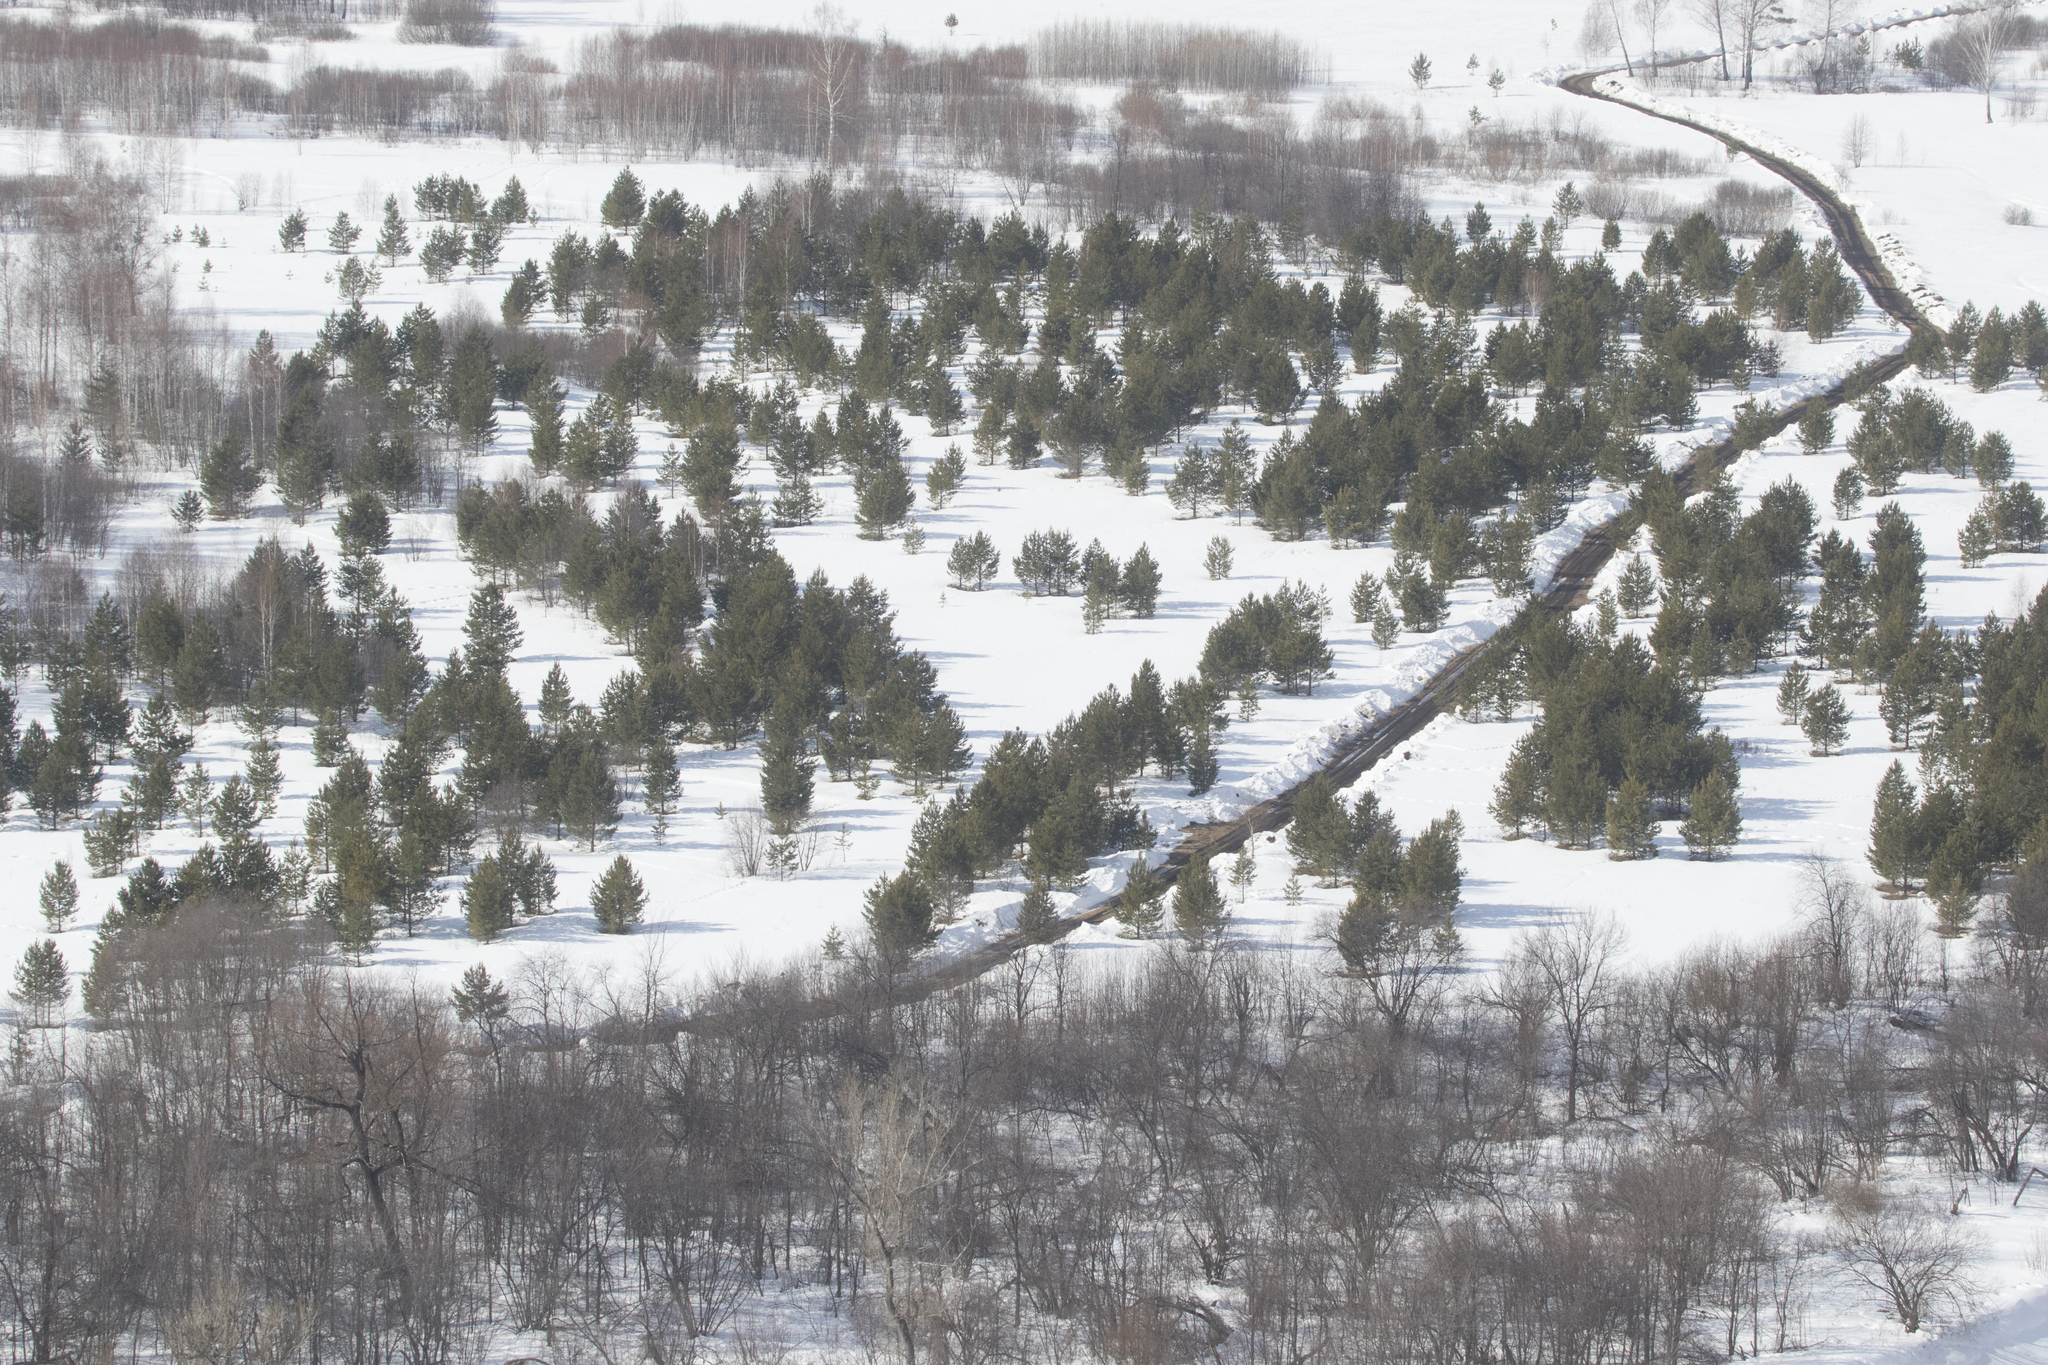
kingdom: Plantae
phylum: Tracheophyta
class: Pinopsida
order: Pinales
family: Pinaceae
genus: Pinus
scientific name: Pinus sylvestris
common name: Scots pine
